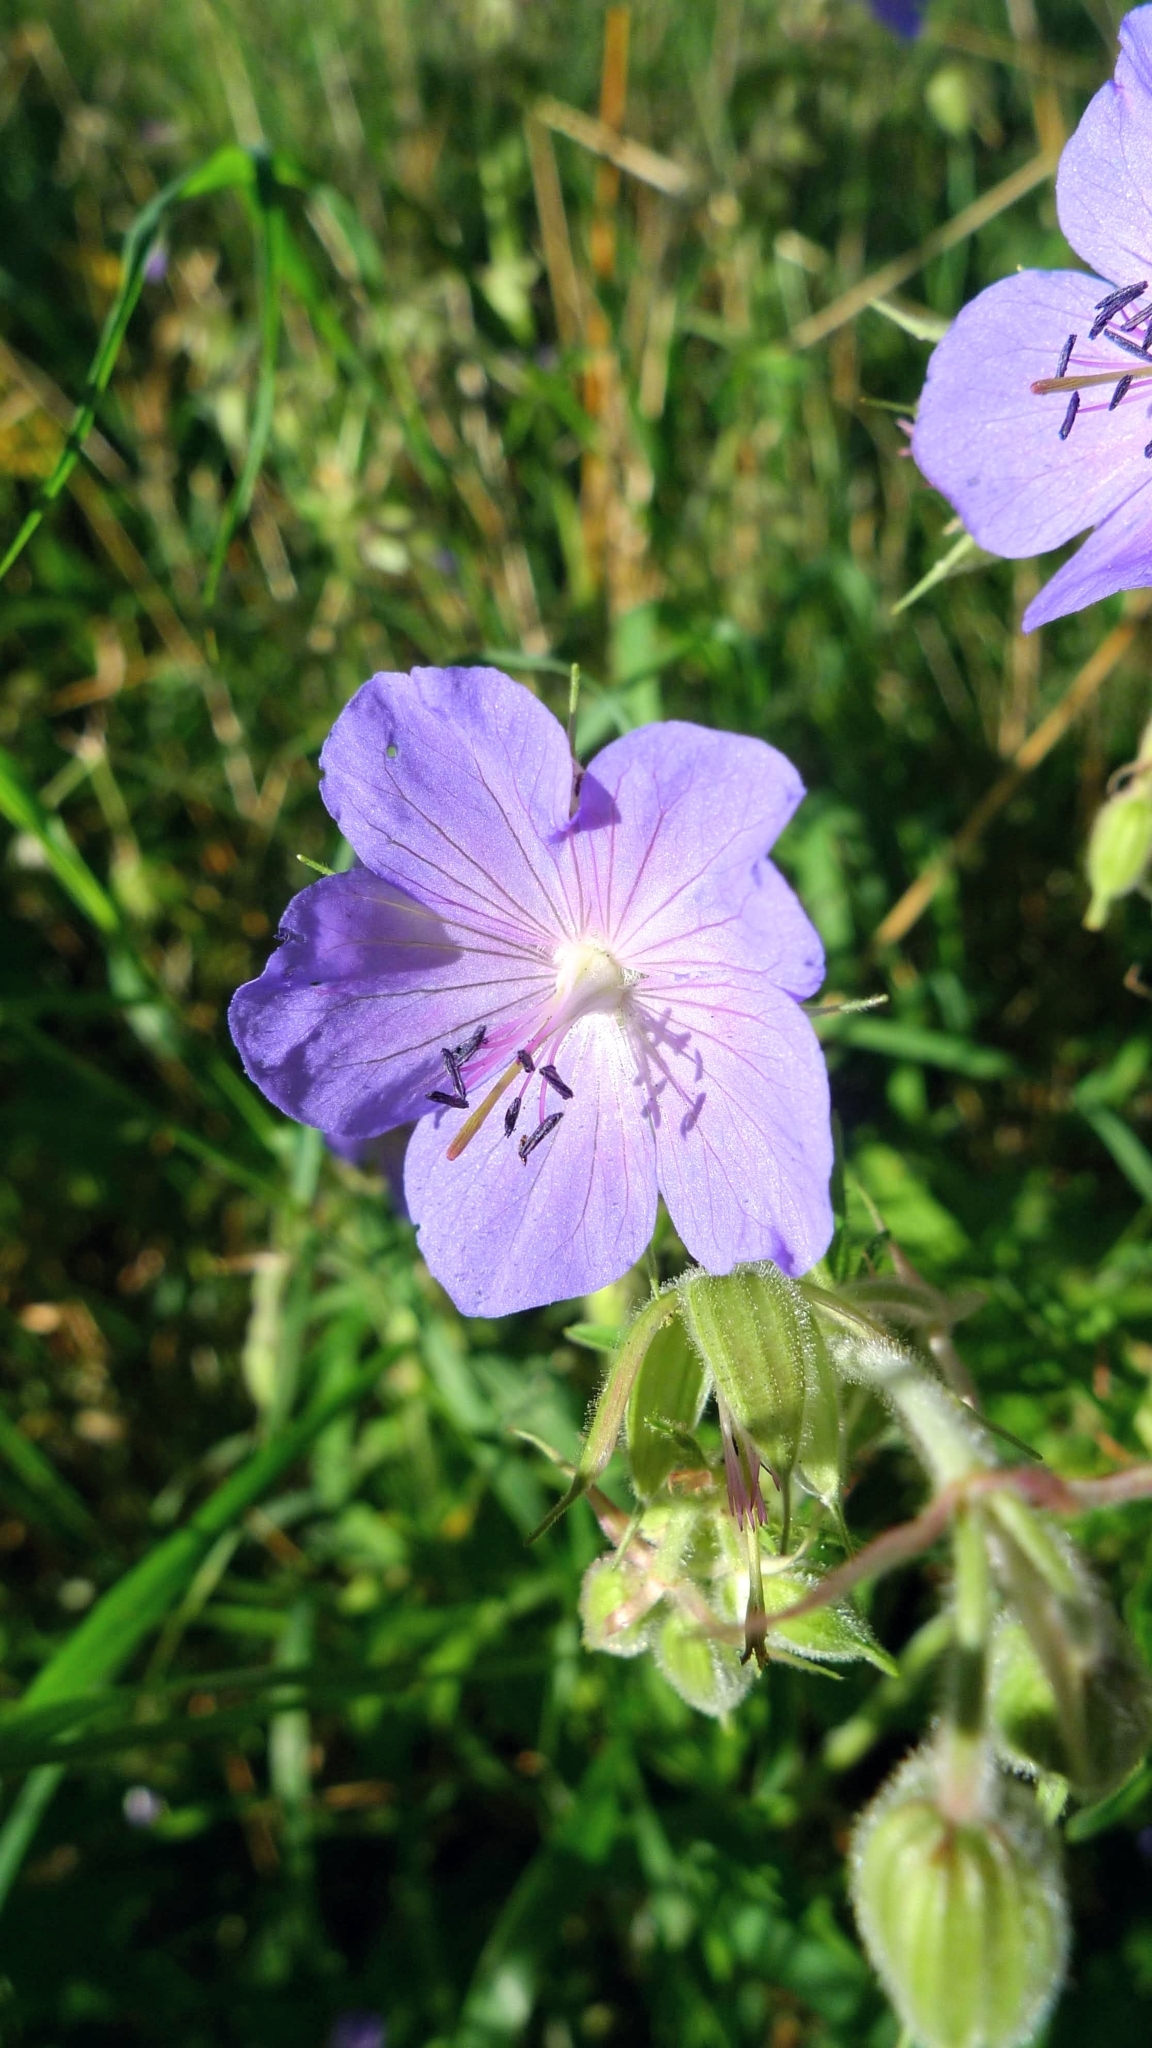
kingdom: Plantae
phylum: Tracheophyta
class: Magnoliopsida
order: Geraniales
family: Geraniaceae
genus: Geranium
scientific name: Geranium pratense
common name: Meadow crane's-bill
